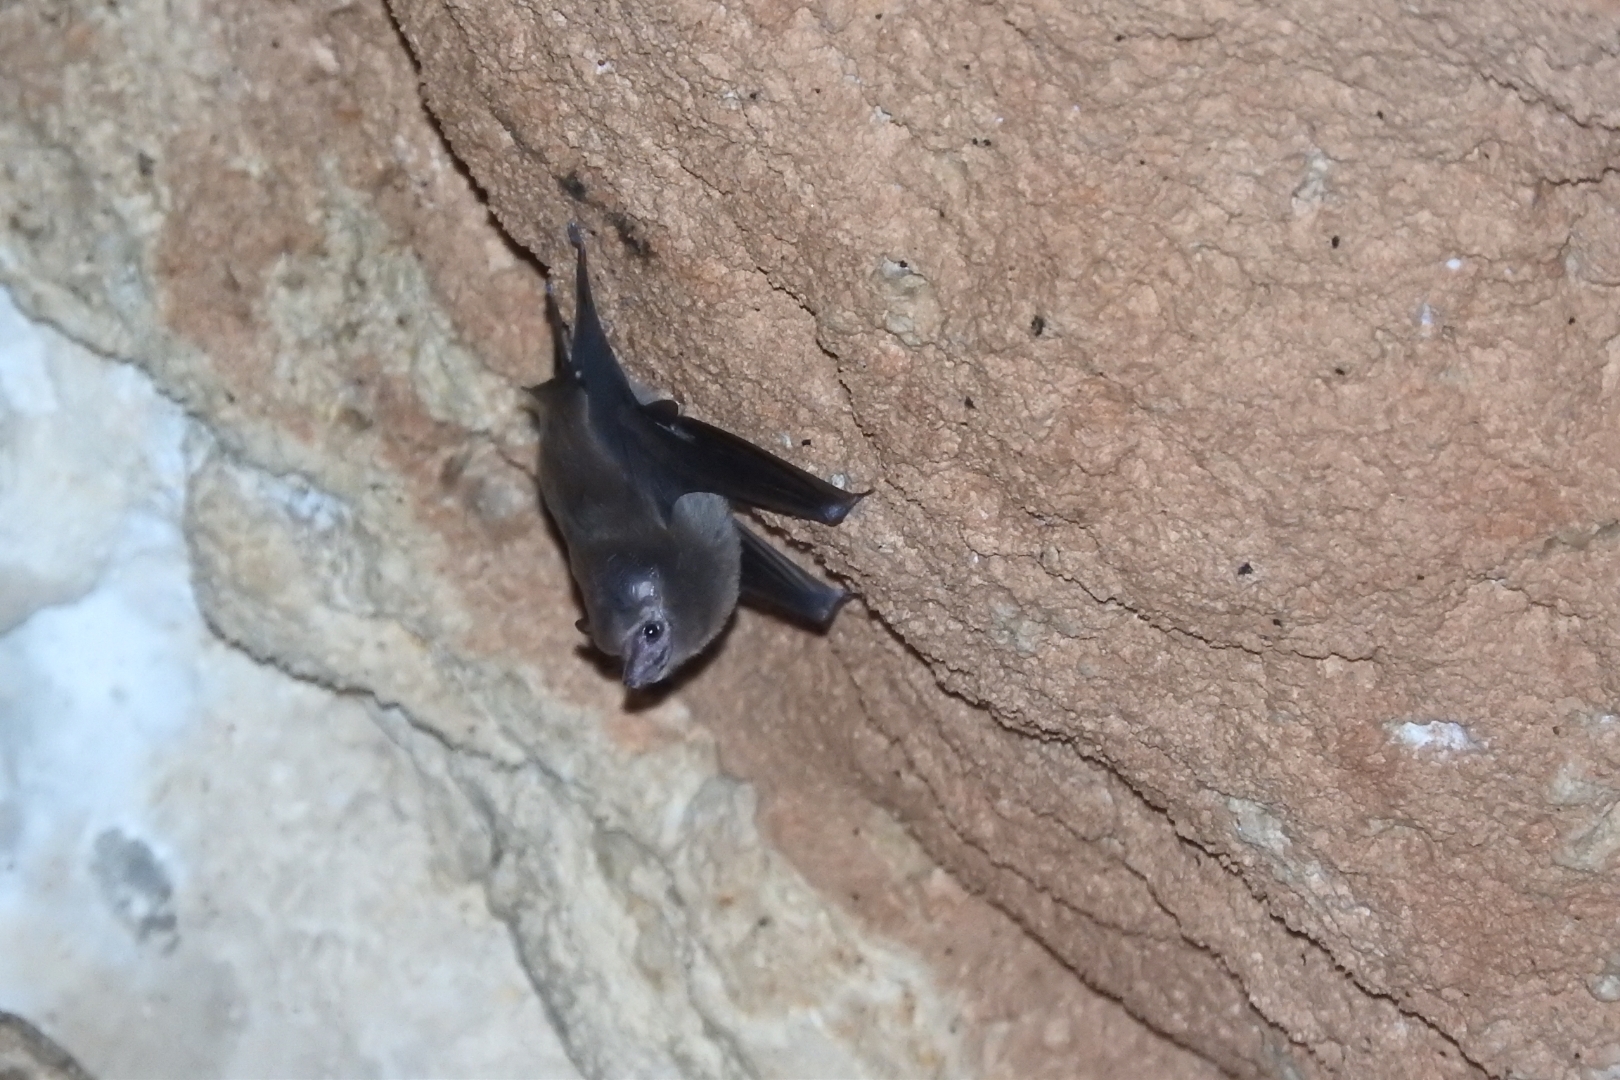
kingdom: Animalia
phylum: Chordata
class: Mammalia
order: Chiroptera
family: Emballonuridae
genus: Peropteryx
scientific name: Peropteryx macrotis
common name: Lesser dog-like bat
